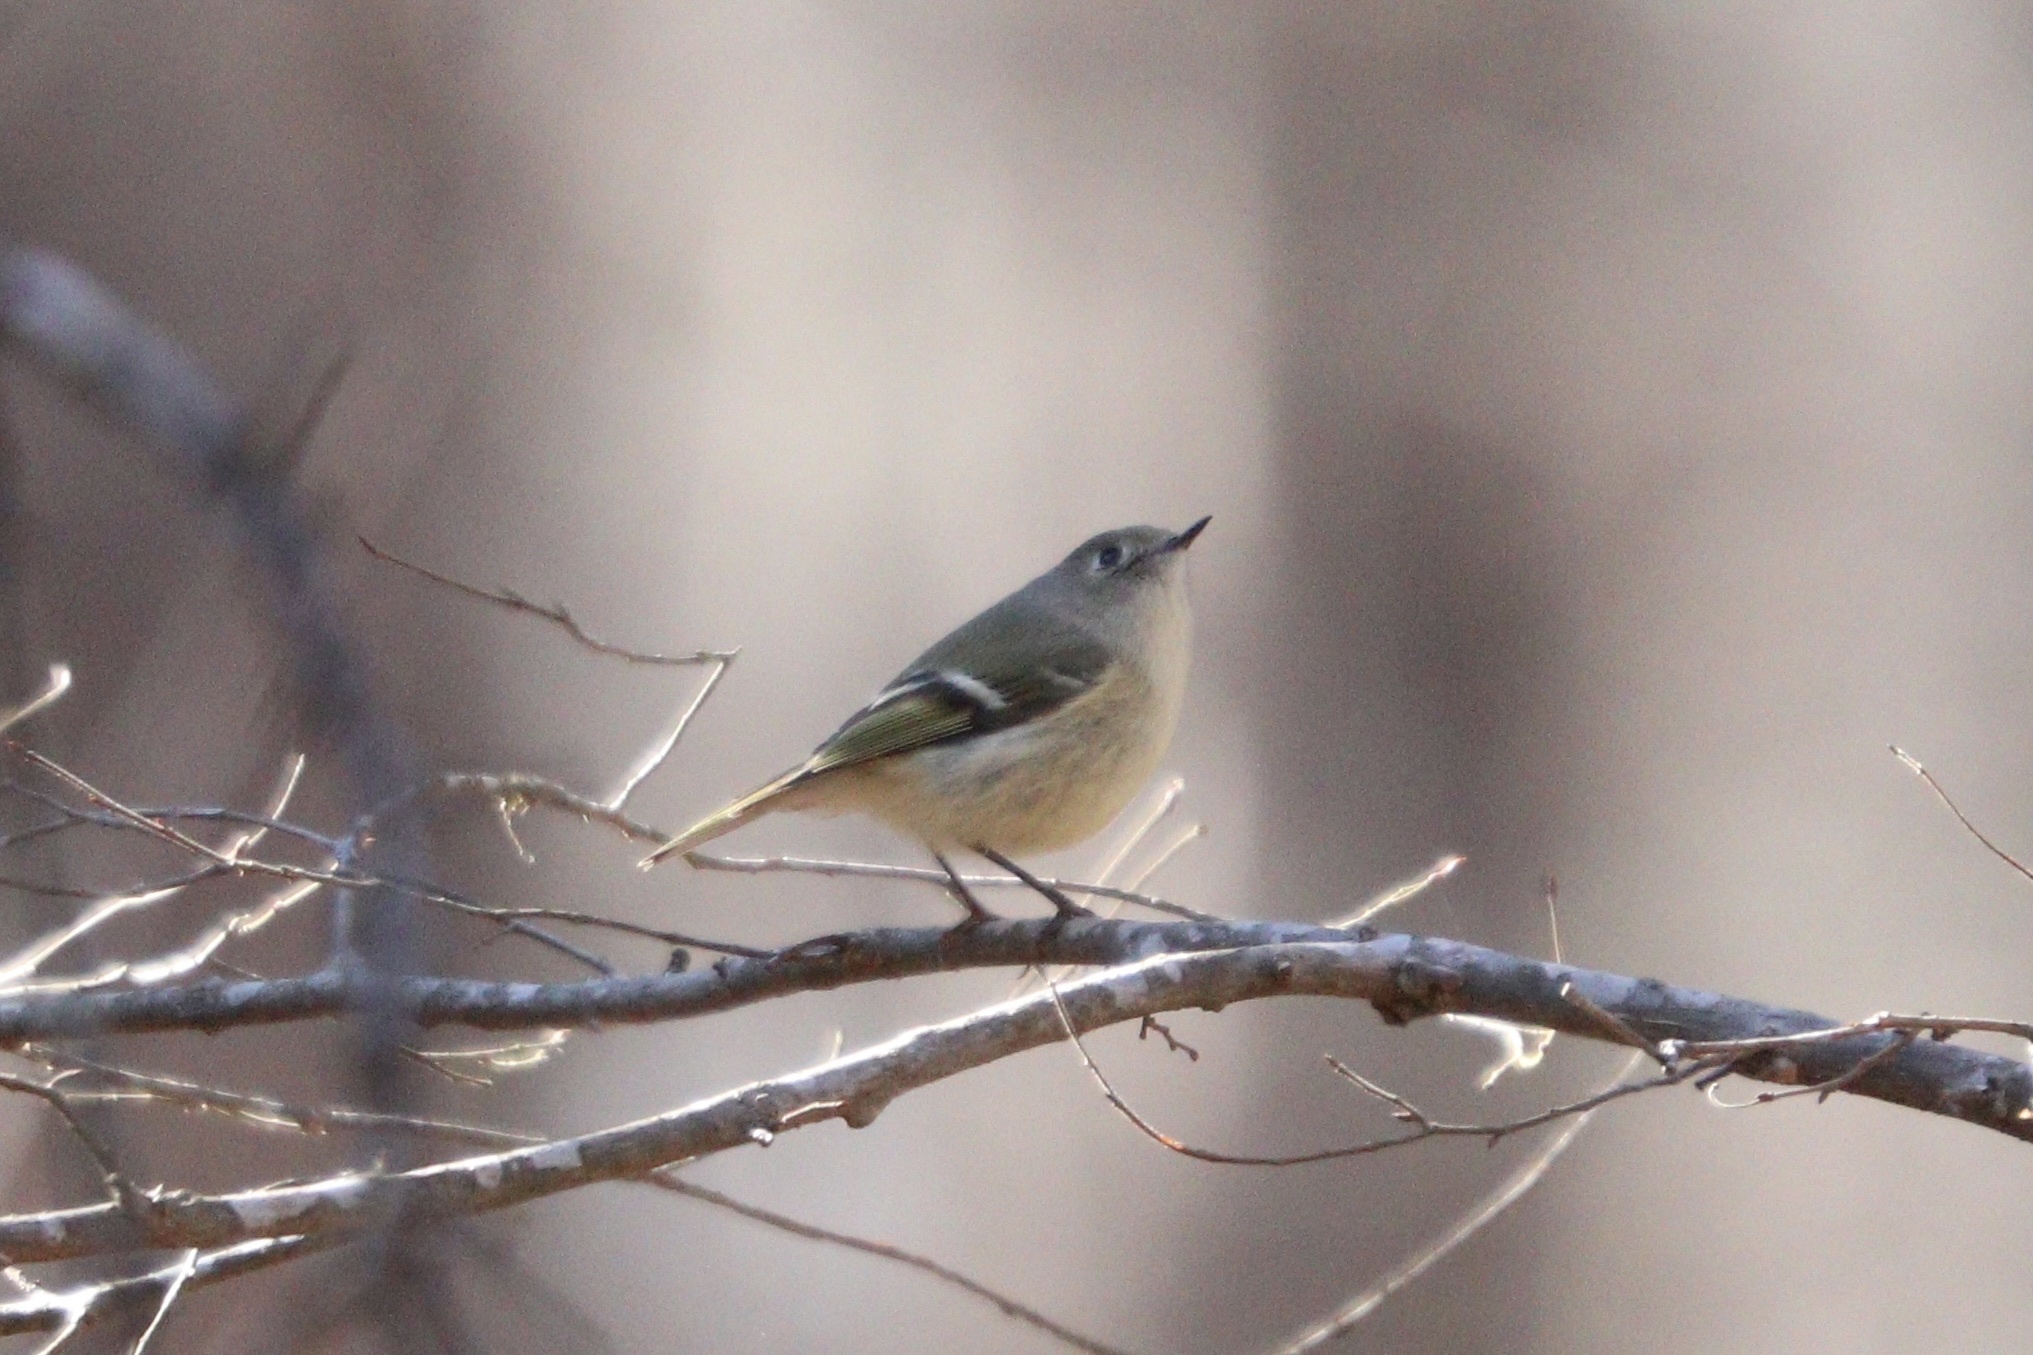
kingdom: Animalia
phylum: Chordata
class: Aves
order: Passeriformes
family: Regulidae
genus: Regulus
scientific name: Regulus calendula
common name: Ruby-crowned kinglet
